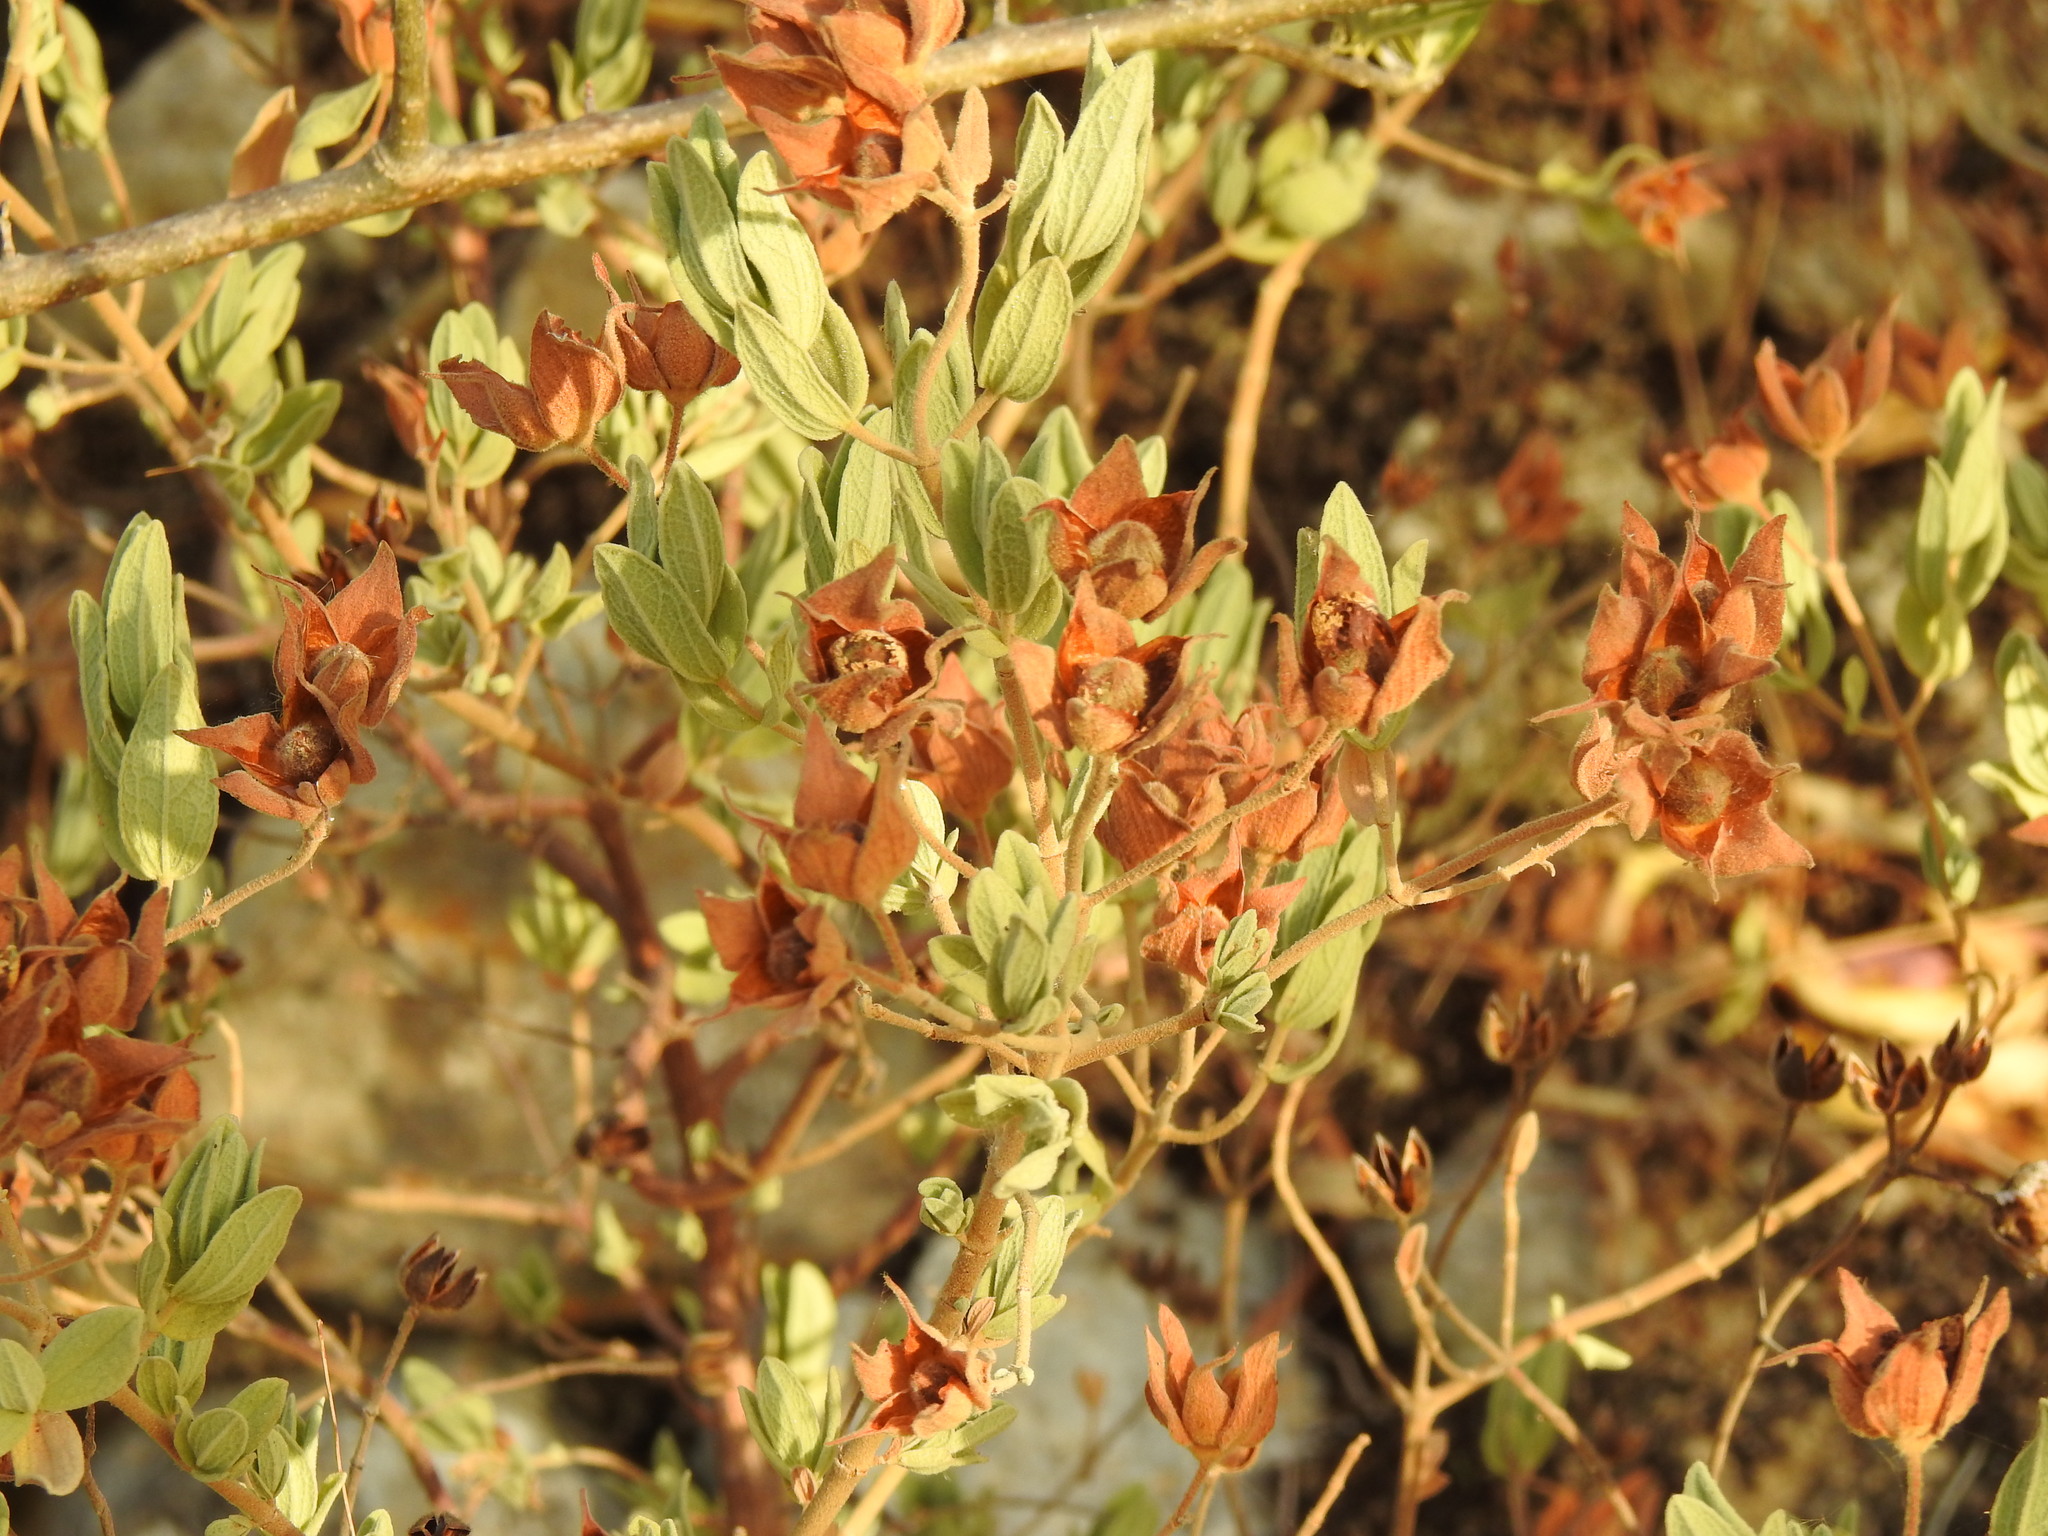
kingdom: Plantae
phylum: Tracheophyta
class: Magnoliopsida
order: Malvales
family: Cistaceae
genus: Cistus
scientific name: Cistus albidus
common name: White-leaf rock-rose
